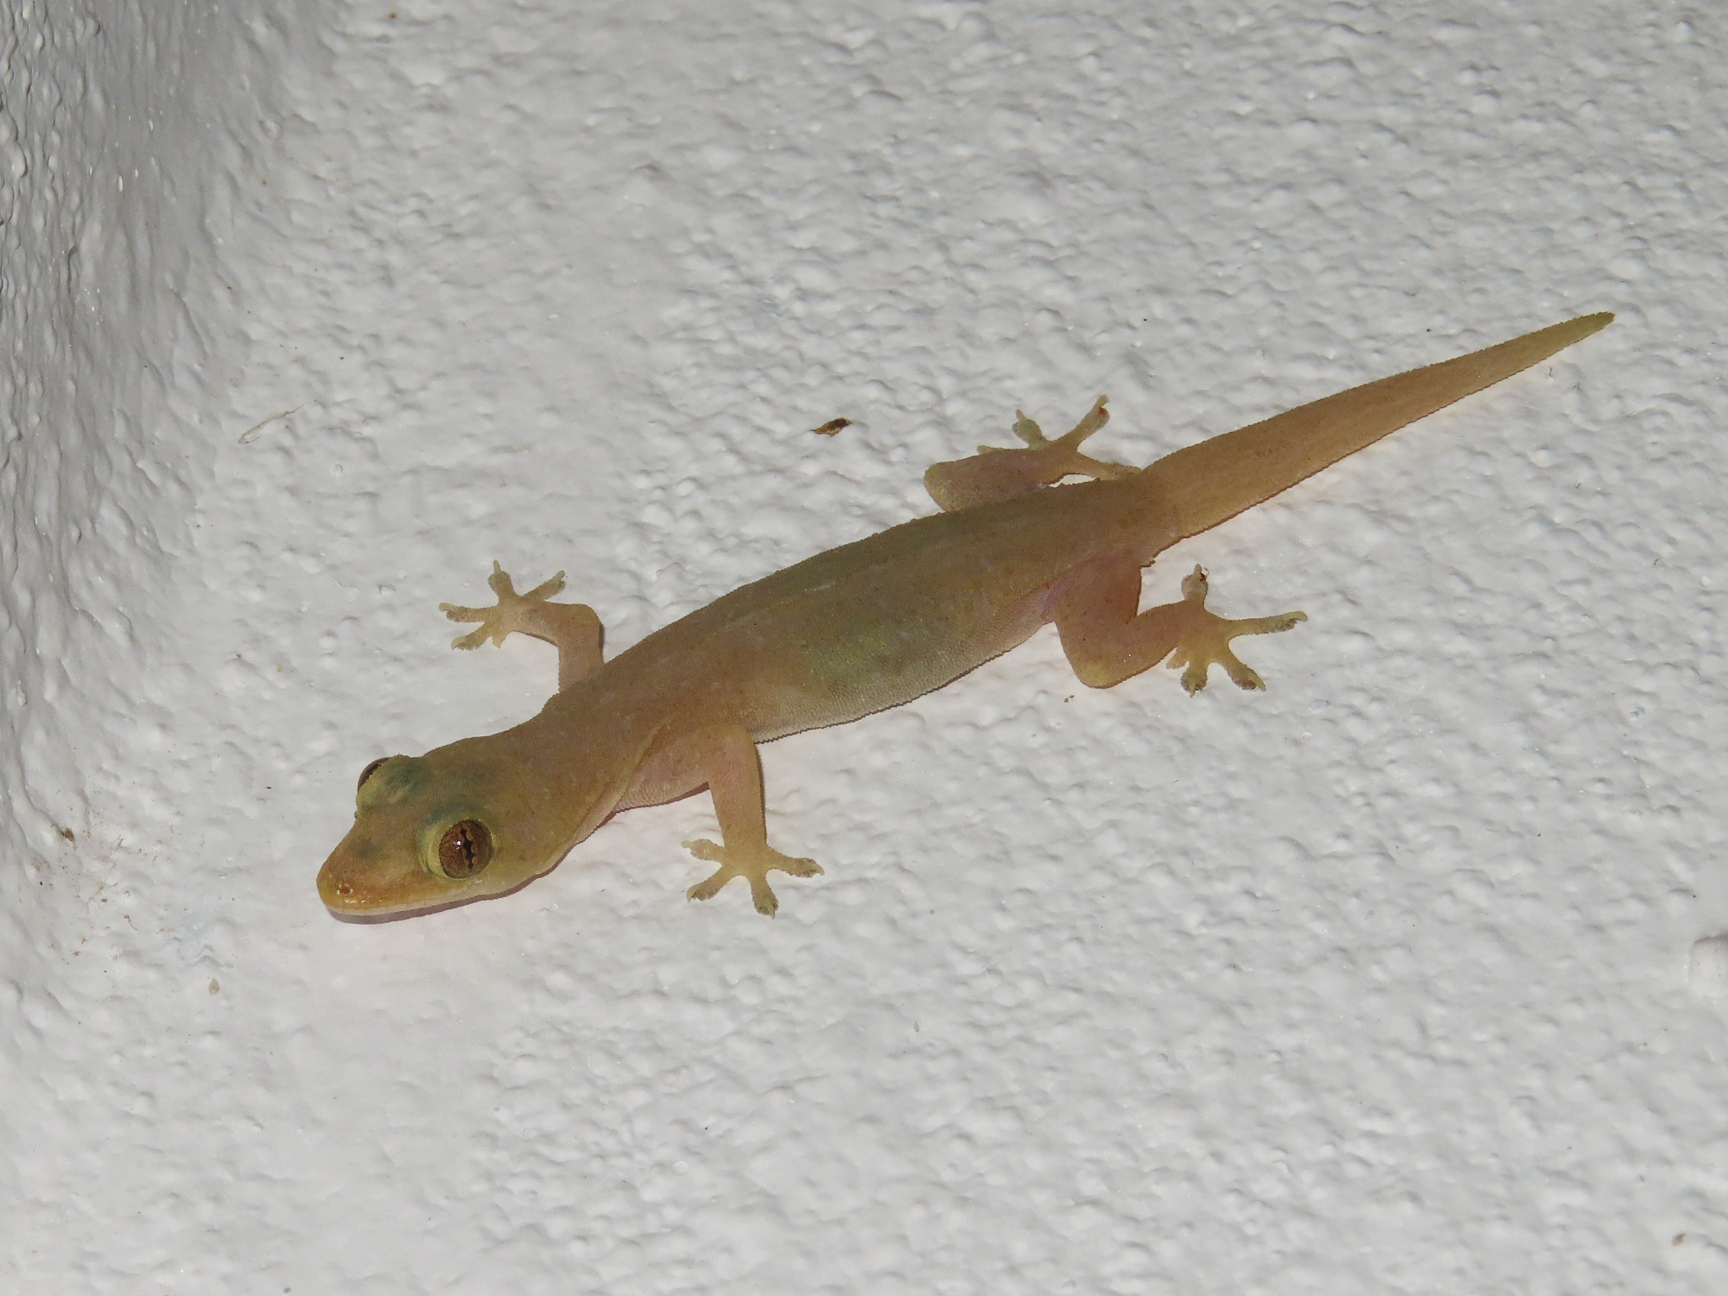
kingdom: Animalia
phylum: Chordata
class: Squamata
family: Gekkonidae
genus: Hemidactylus
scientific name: Hemidactylus frenatus
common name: Common house gecko
